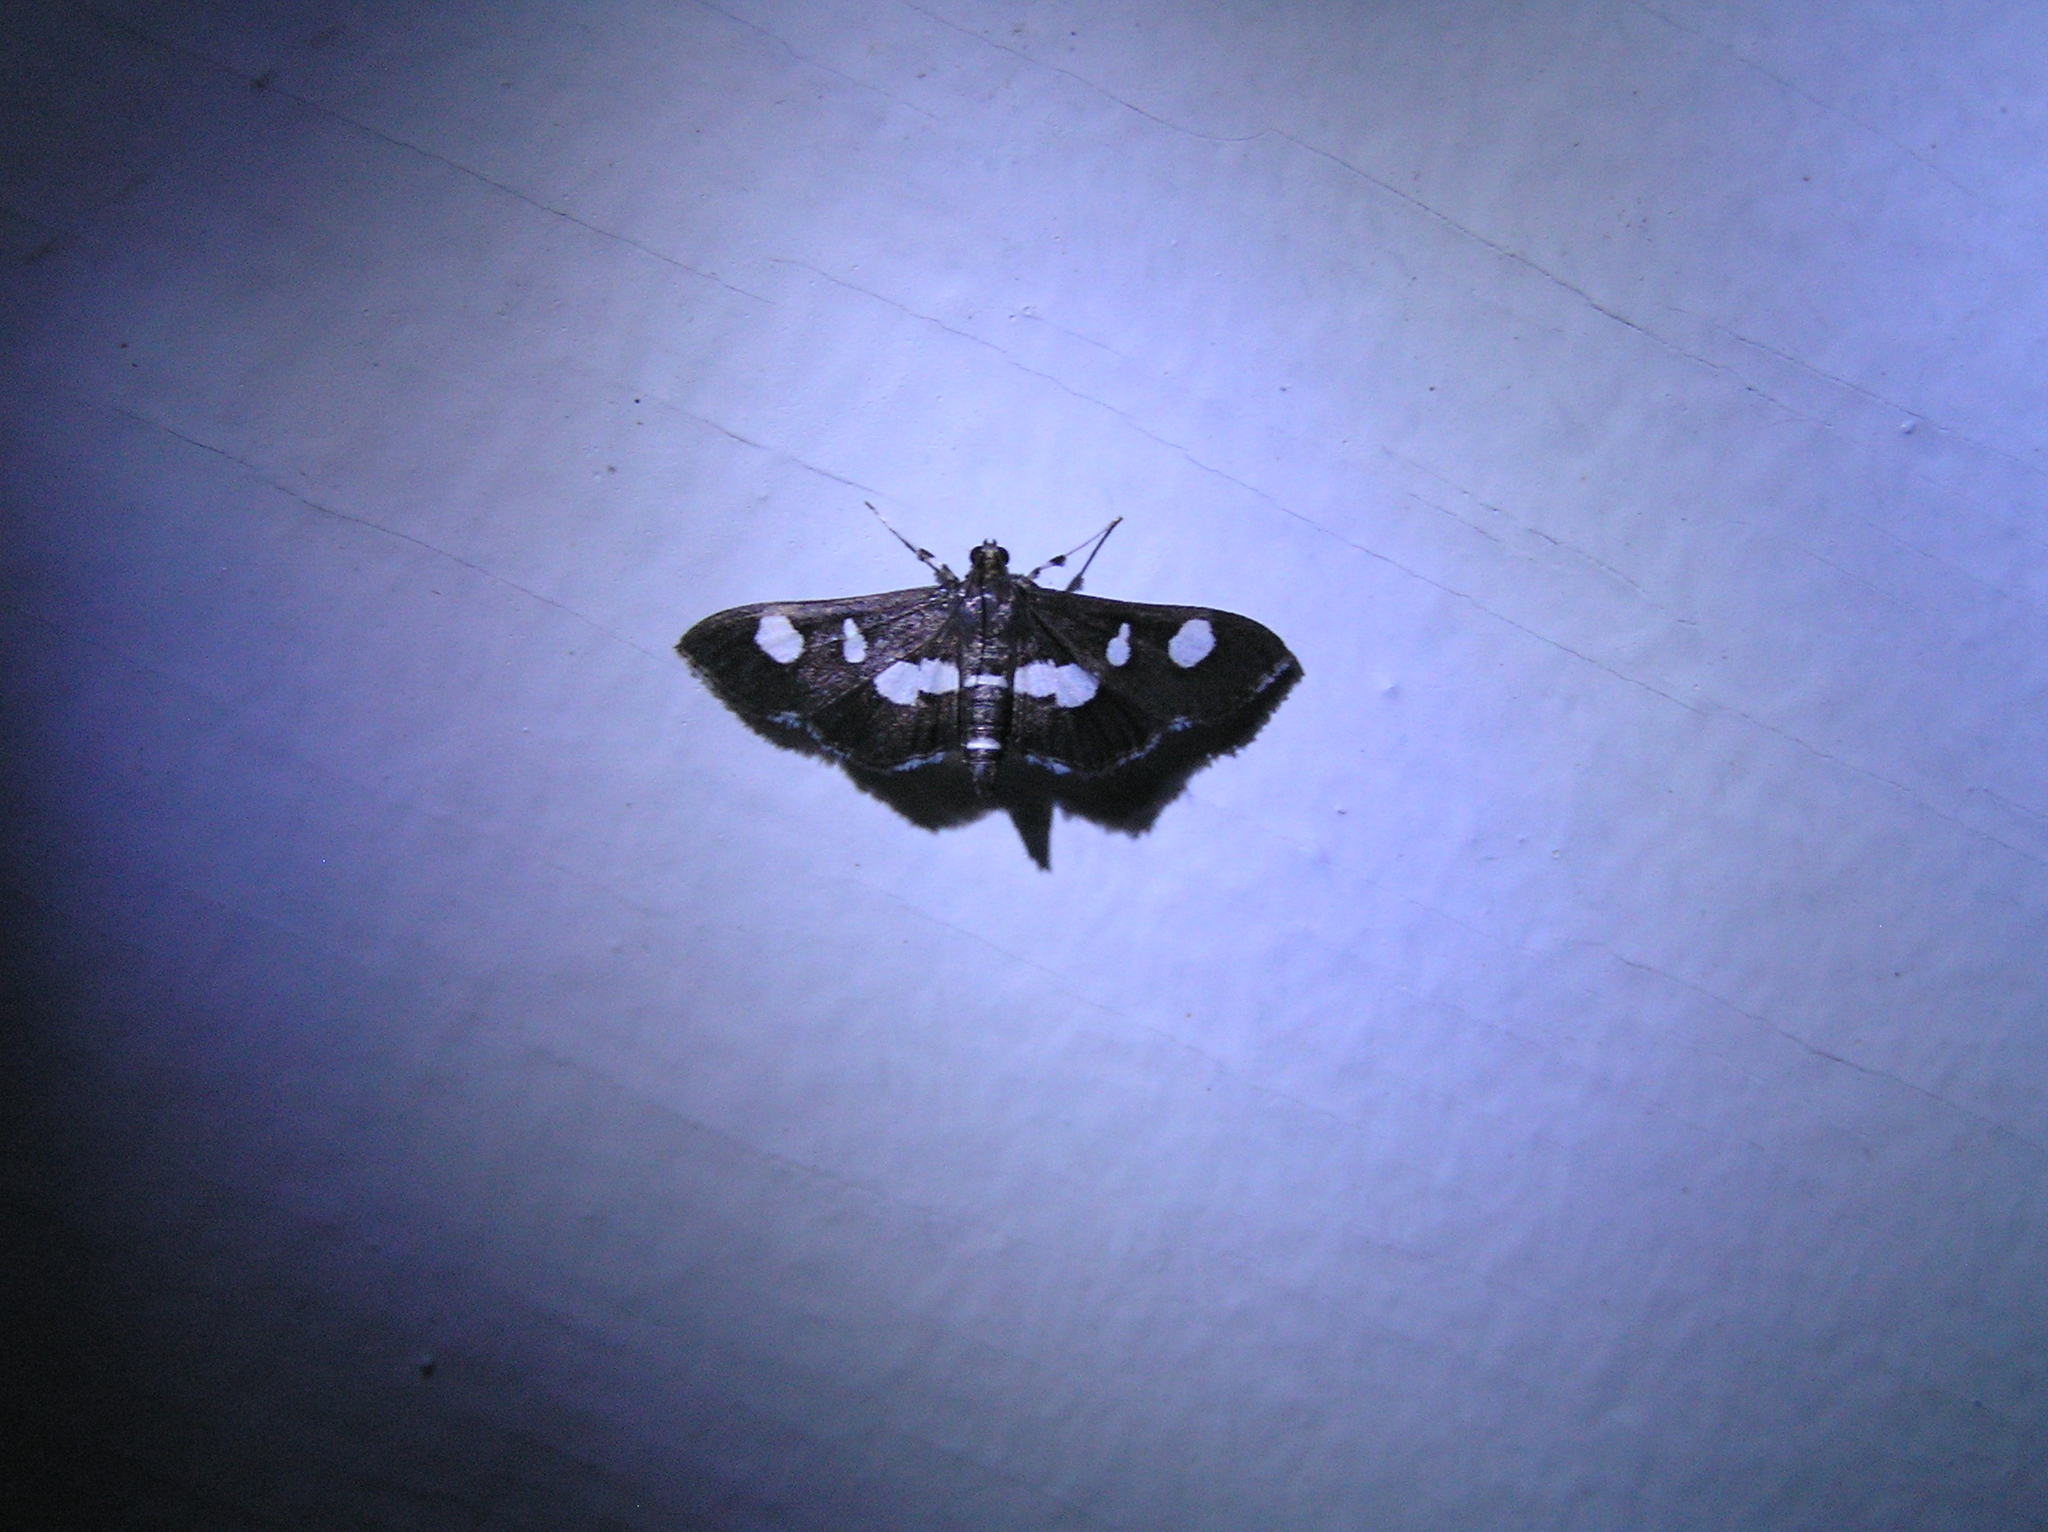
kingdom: Animalia
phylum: Arthropoda
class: Insecta
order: Lepidoptera
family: Crambidae
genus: Desmia
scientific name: Desmia
